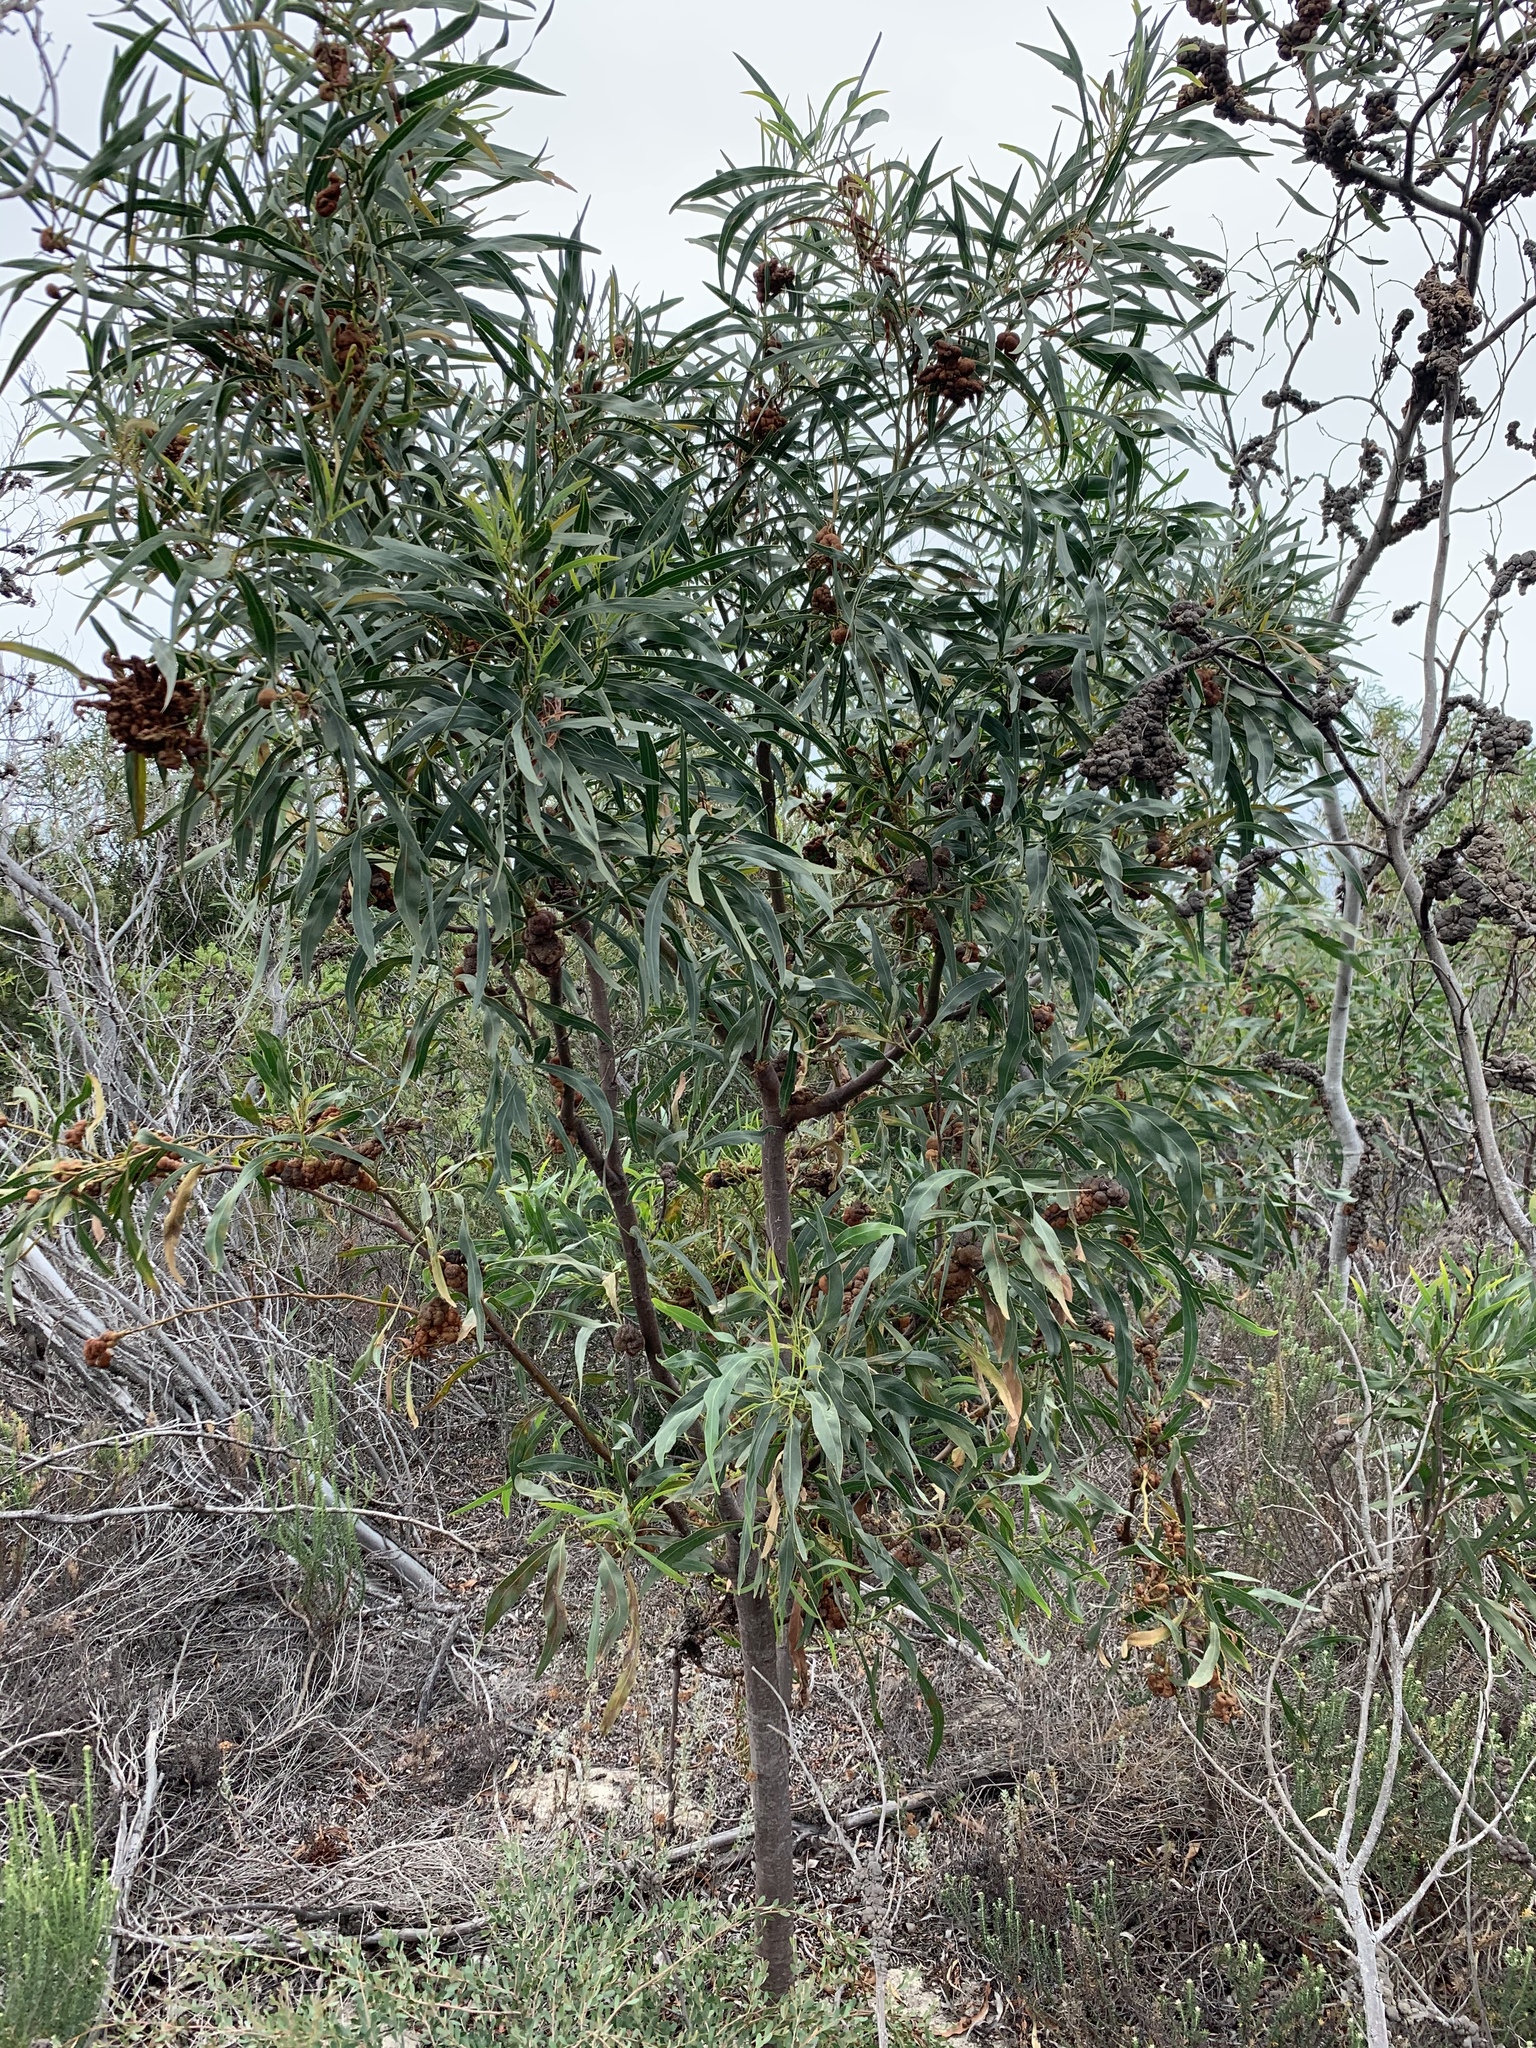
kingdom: Plantae
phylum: Tracheophyta
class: Magnoliopsida
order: Fabales
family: Fabaceae
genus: Acacia
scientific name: Acacia saligna
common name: Orange wattle
